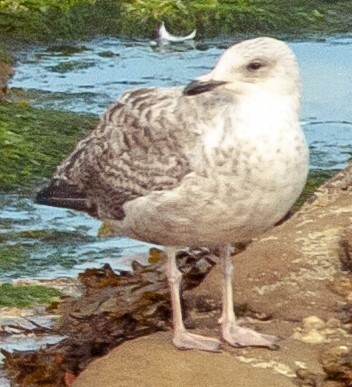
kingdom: Animalia
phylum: Chordata
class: Aves
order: Charadriiformes
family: Laridae
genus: Larus
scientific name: Larus argentatus
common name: Herring gull
